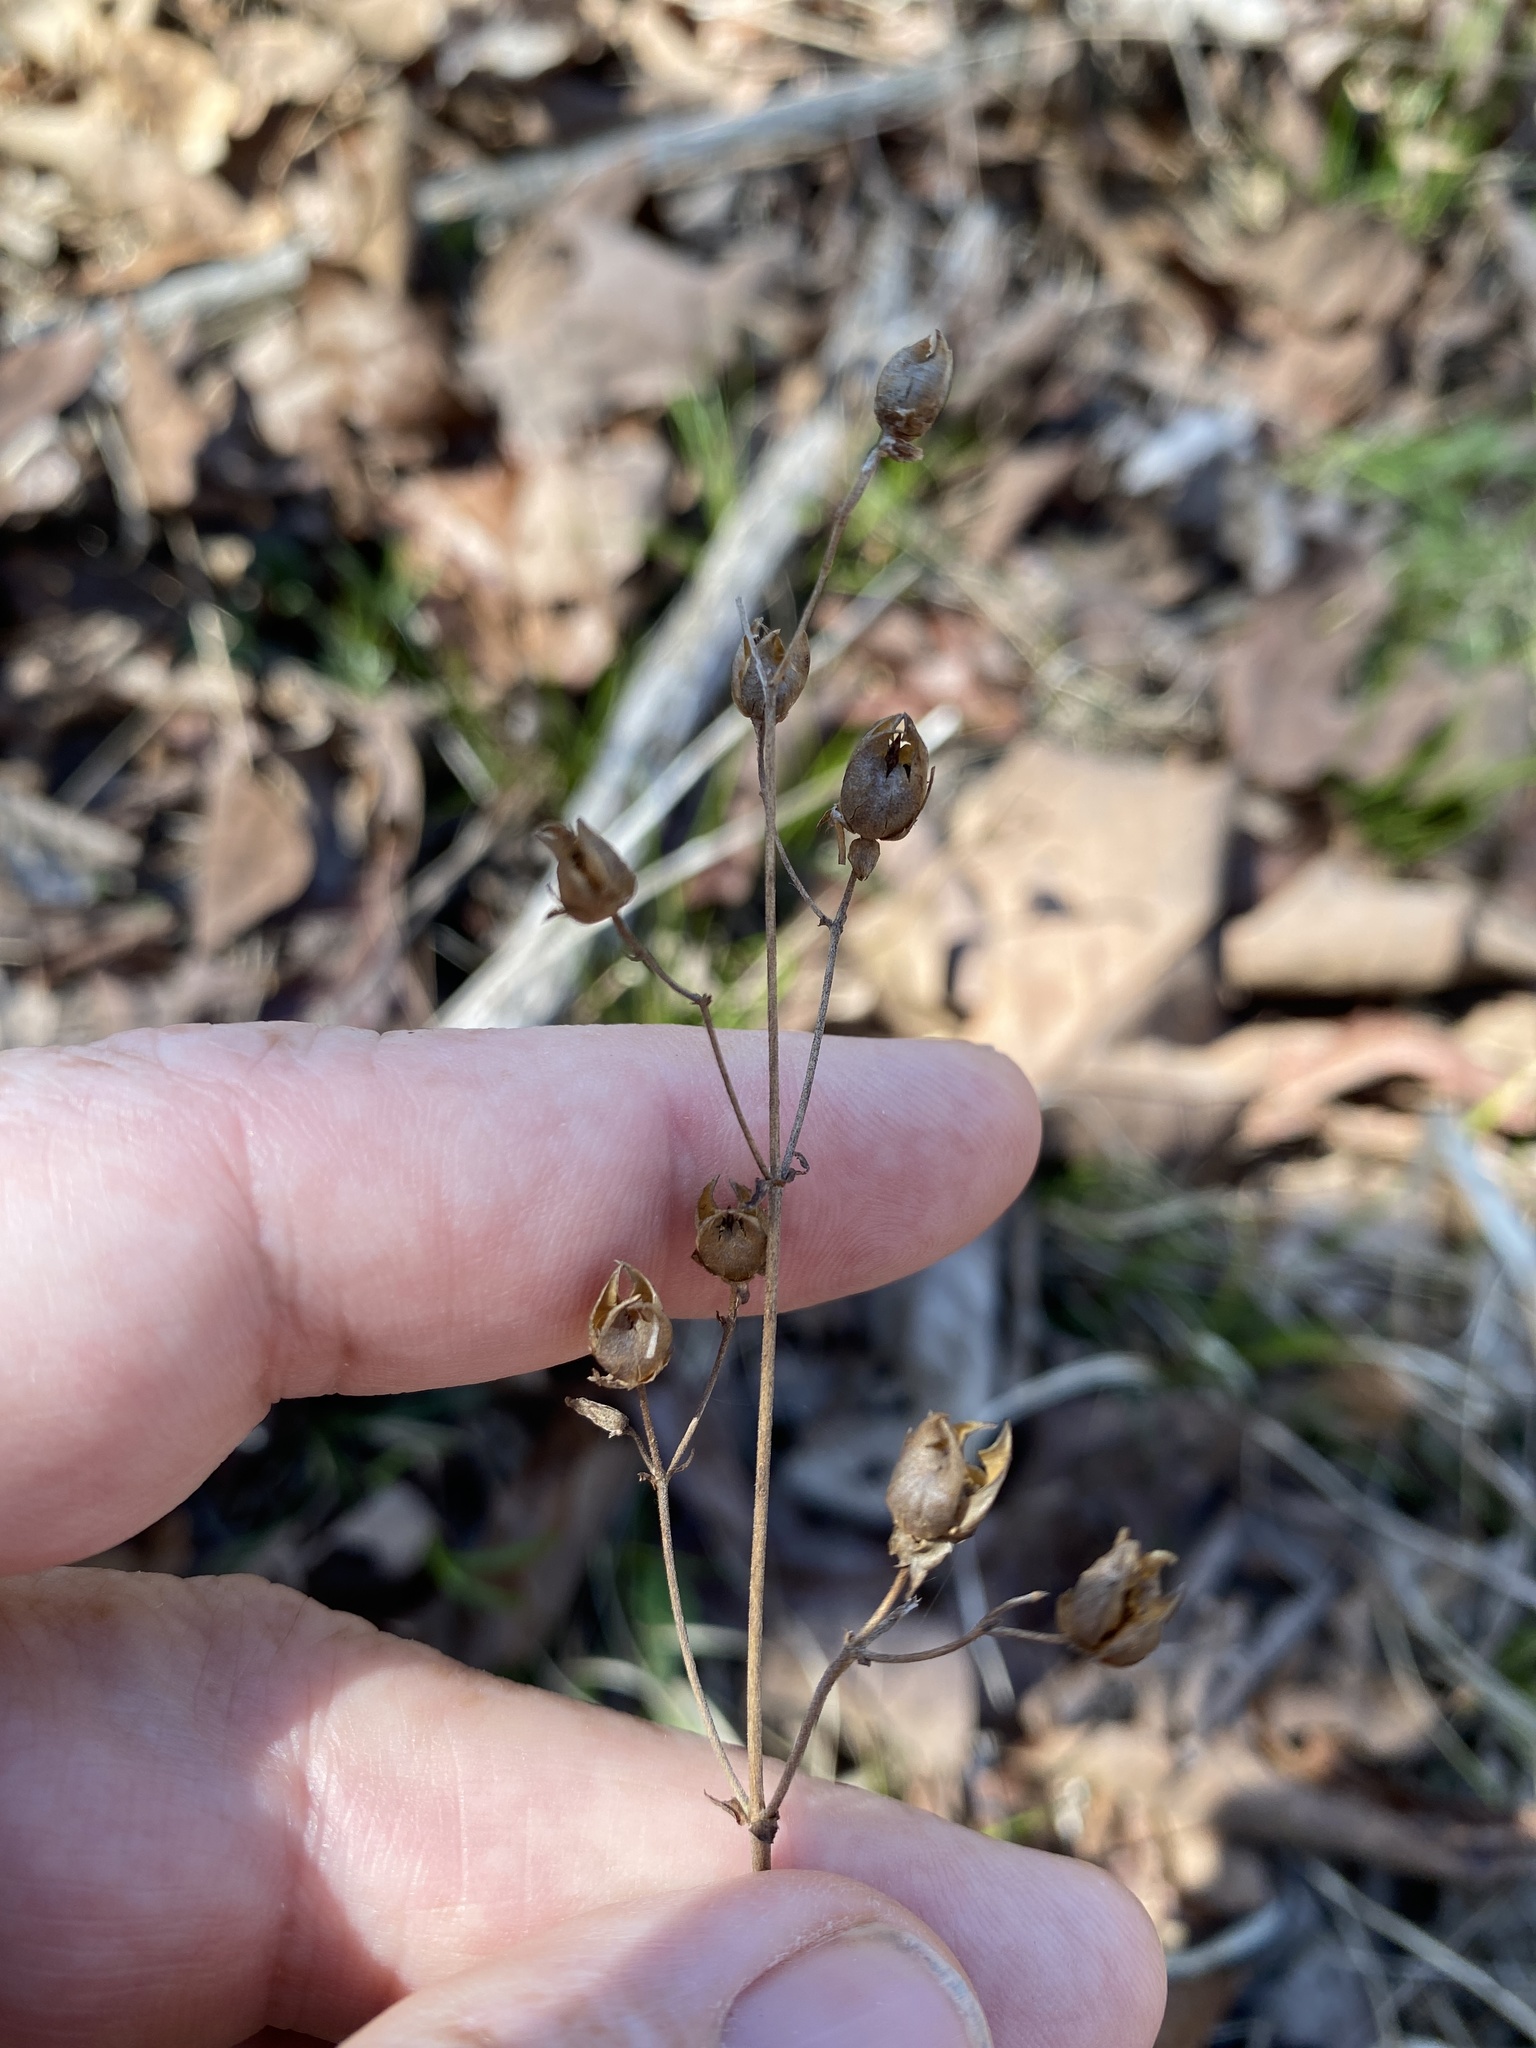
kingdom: Plantae
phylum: Tracheophyta
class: Magnoliopsida
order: Lamiales
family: Plantaginaceae
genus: Penstemon
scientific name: Penstemon arkansanus
